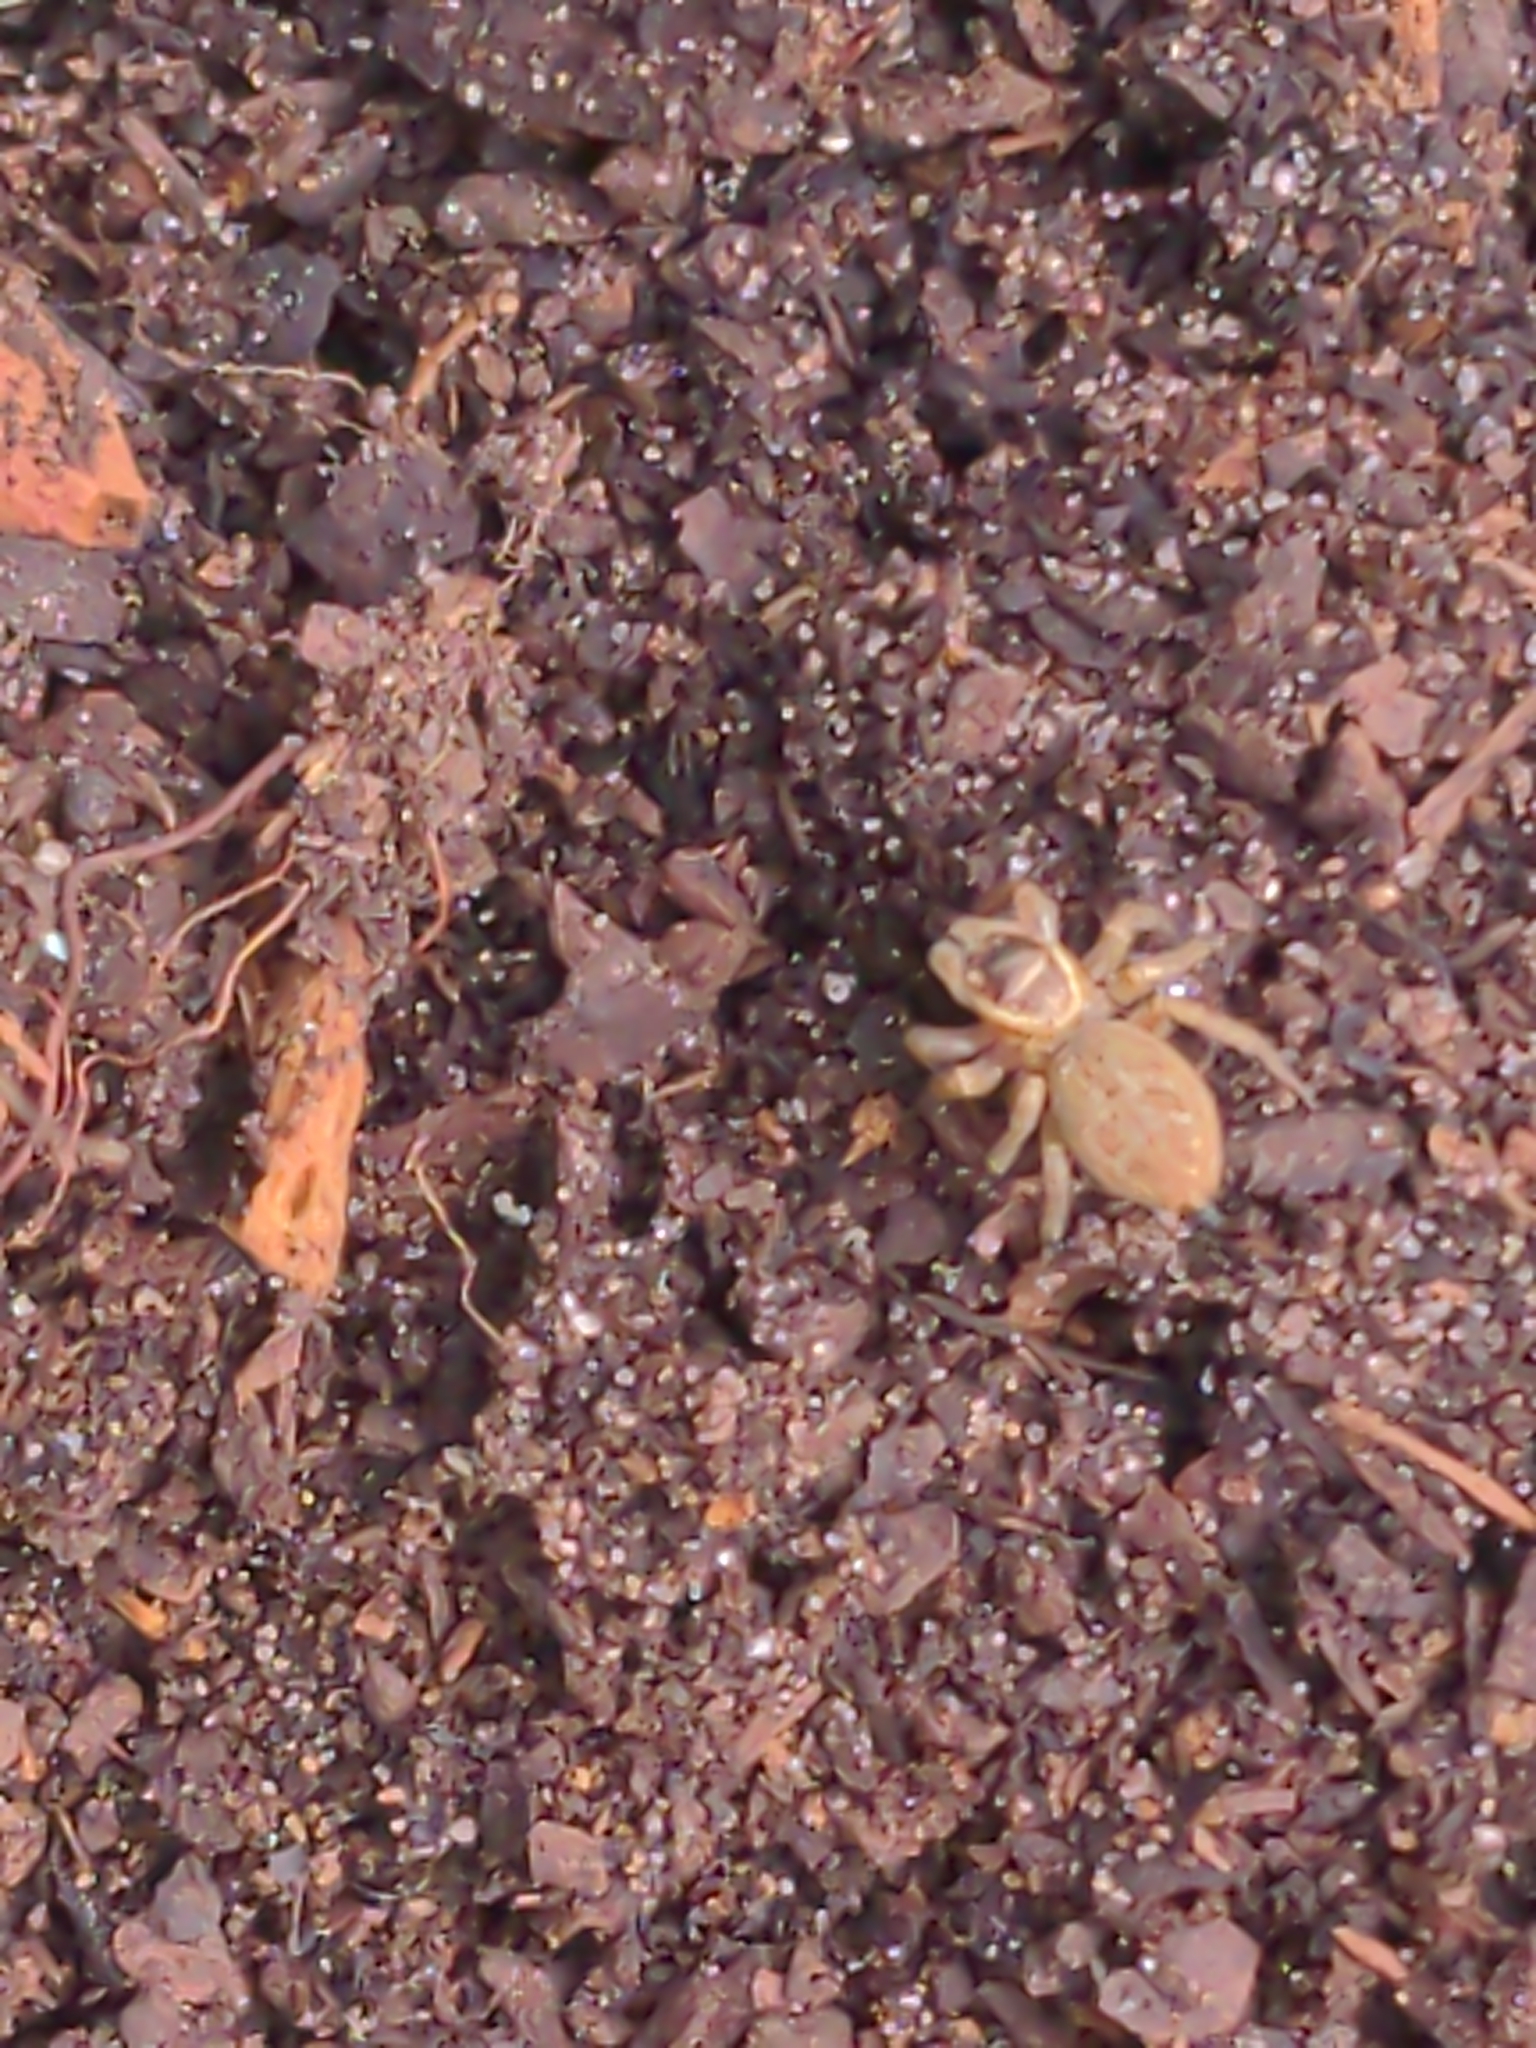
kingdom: Animalia
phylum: Arthropoda
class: Arachnida
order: Araneae
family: Salticidae
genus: Maratus
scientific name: Maratus griseus
